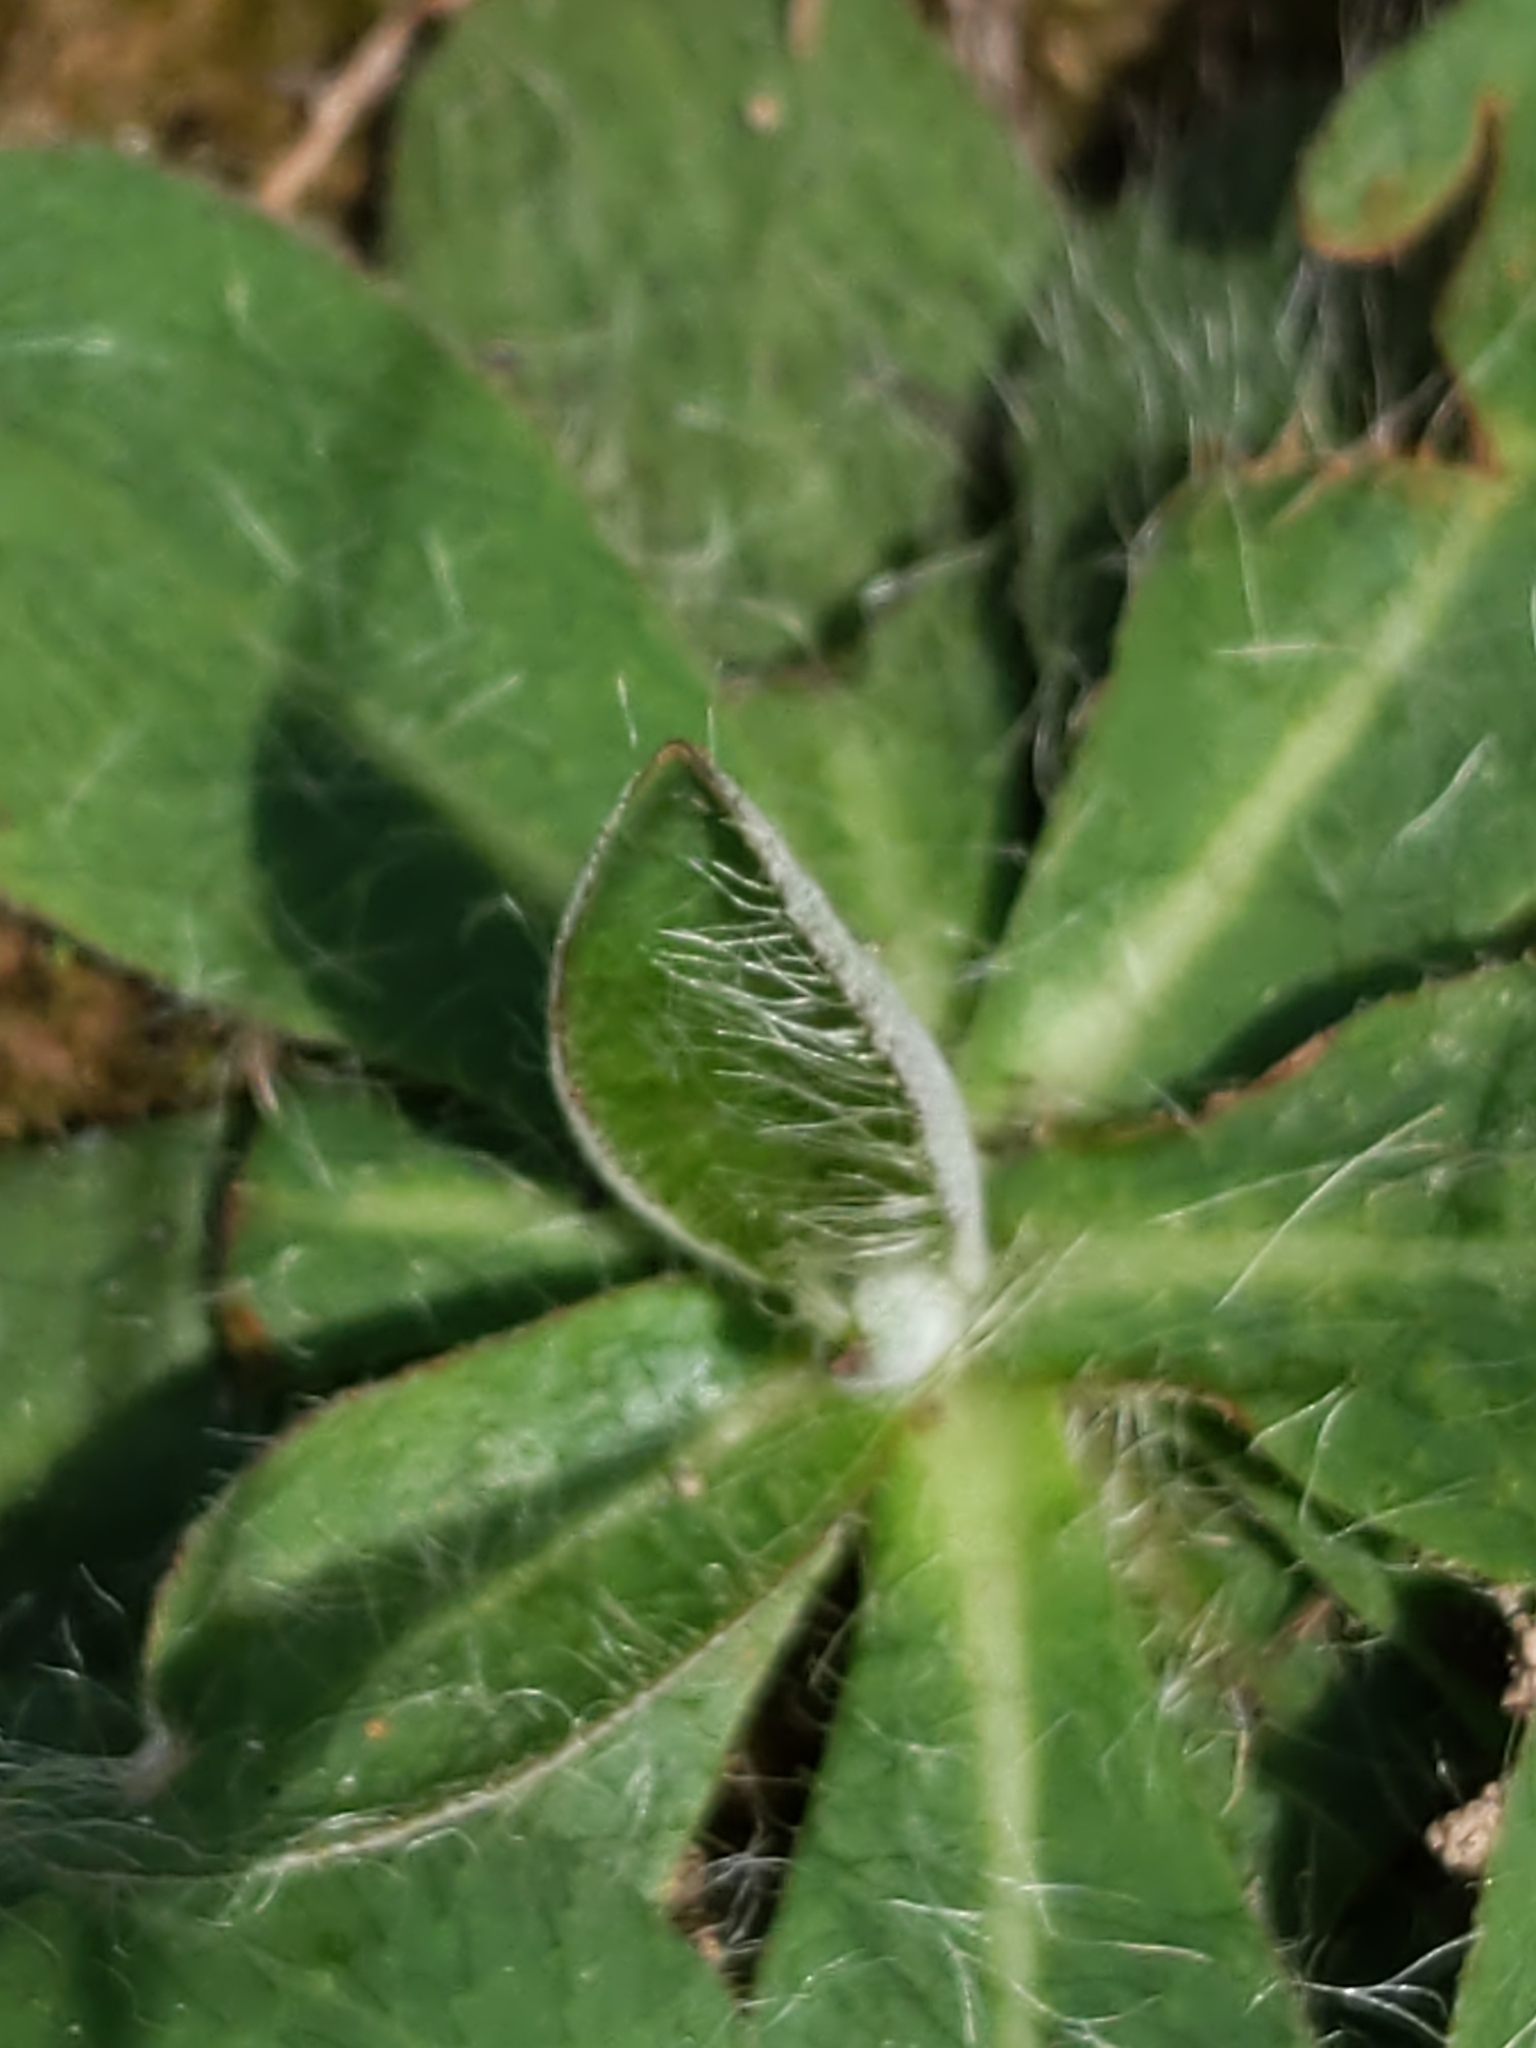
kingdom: Plantae
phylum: Tracheophyta
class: Magnoliopsida
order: Asterales
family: Asteraceae
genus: Pilosella
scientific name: Pilosella officinarum
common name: Mouse-ear hawkweed
